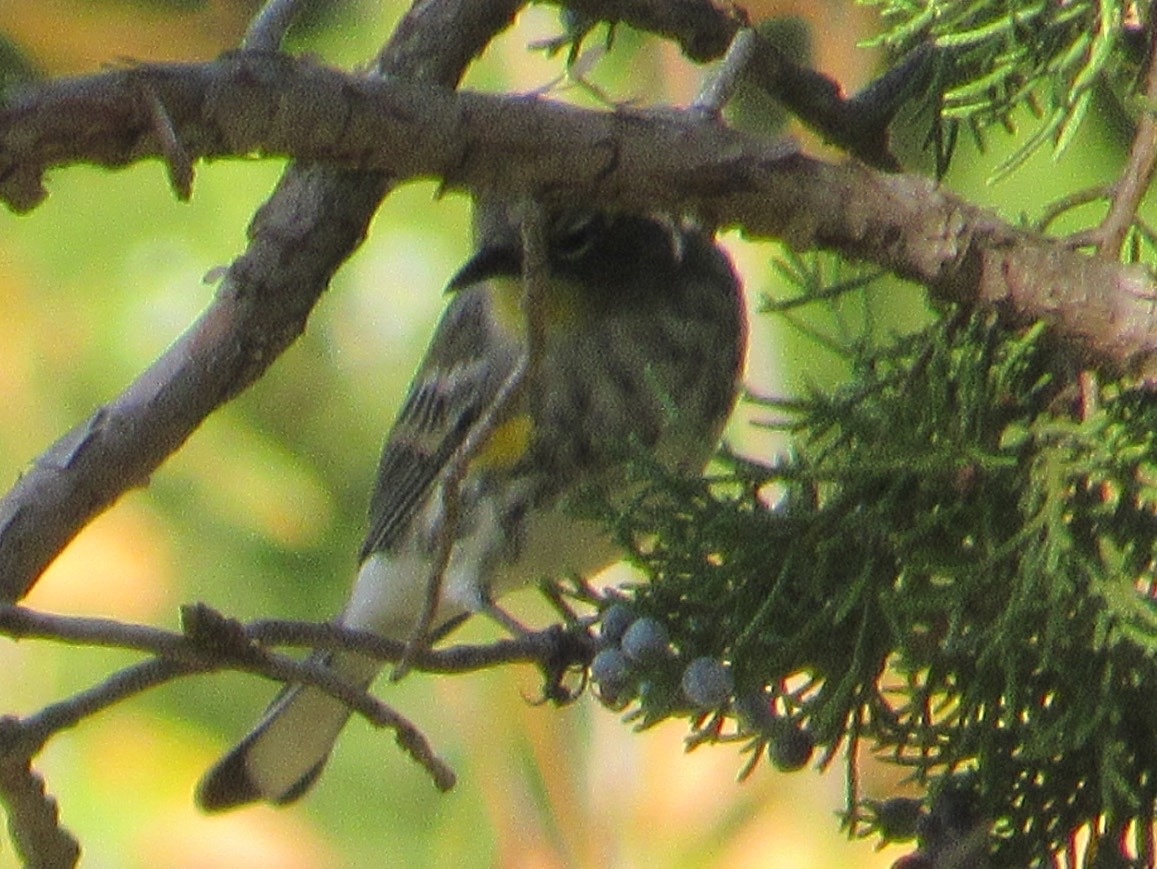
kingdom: Animalia
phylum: Chordata
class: Aves
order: Passeriformes
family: Parulidae
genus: Setophaga
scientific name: Setophaga coronata
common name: Myrtle warbler
